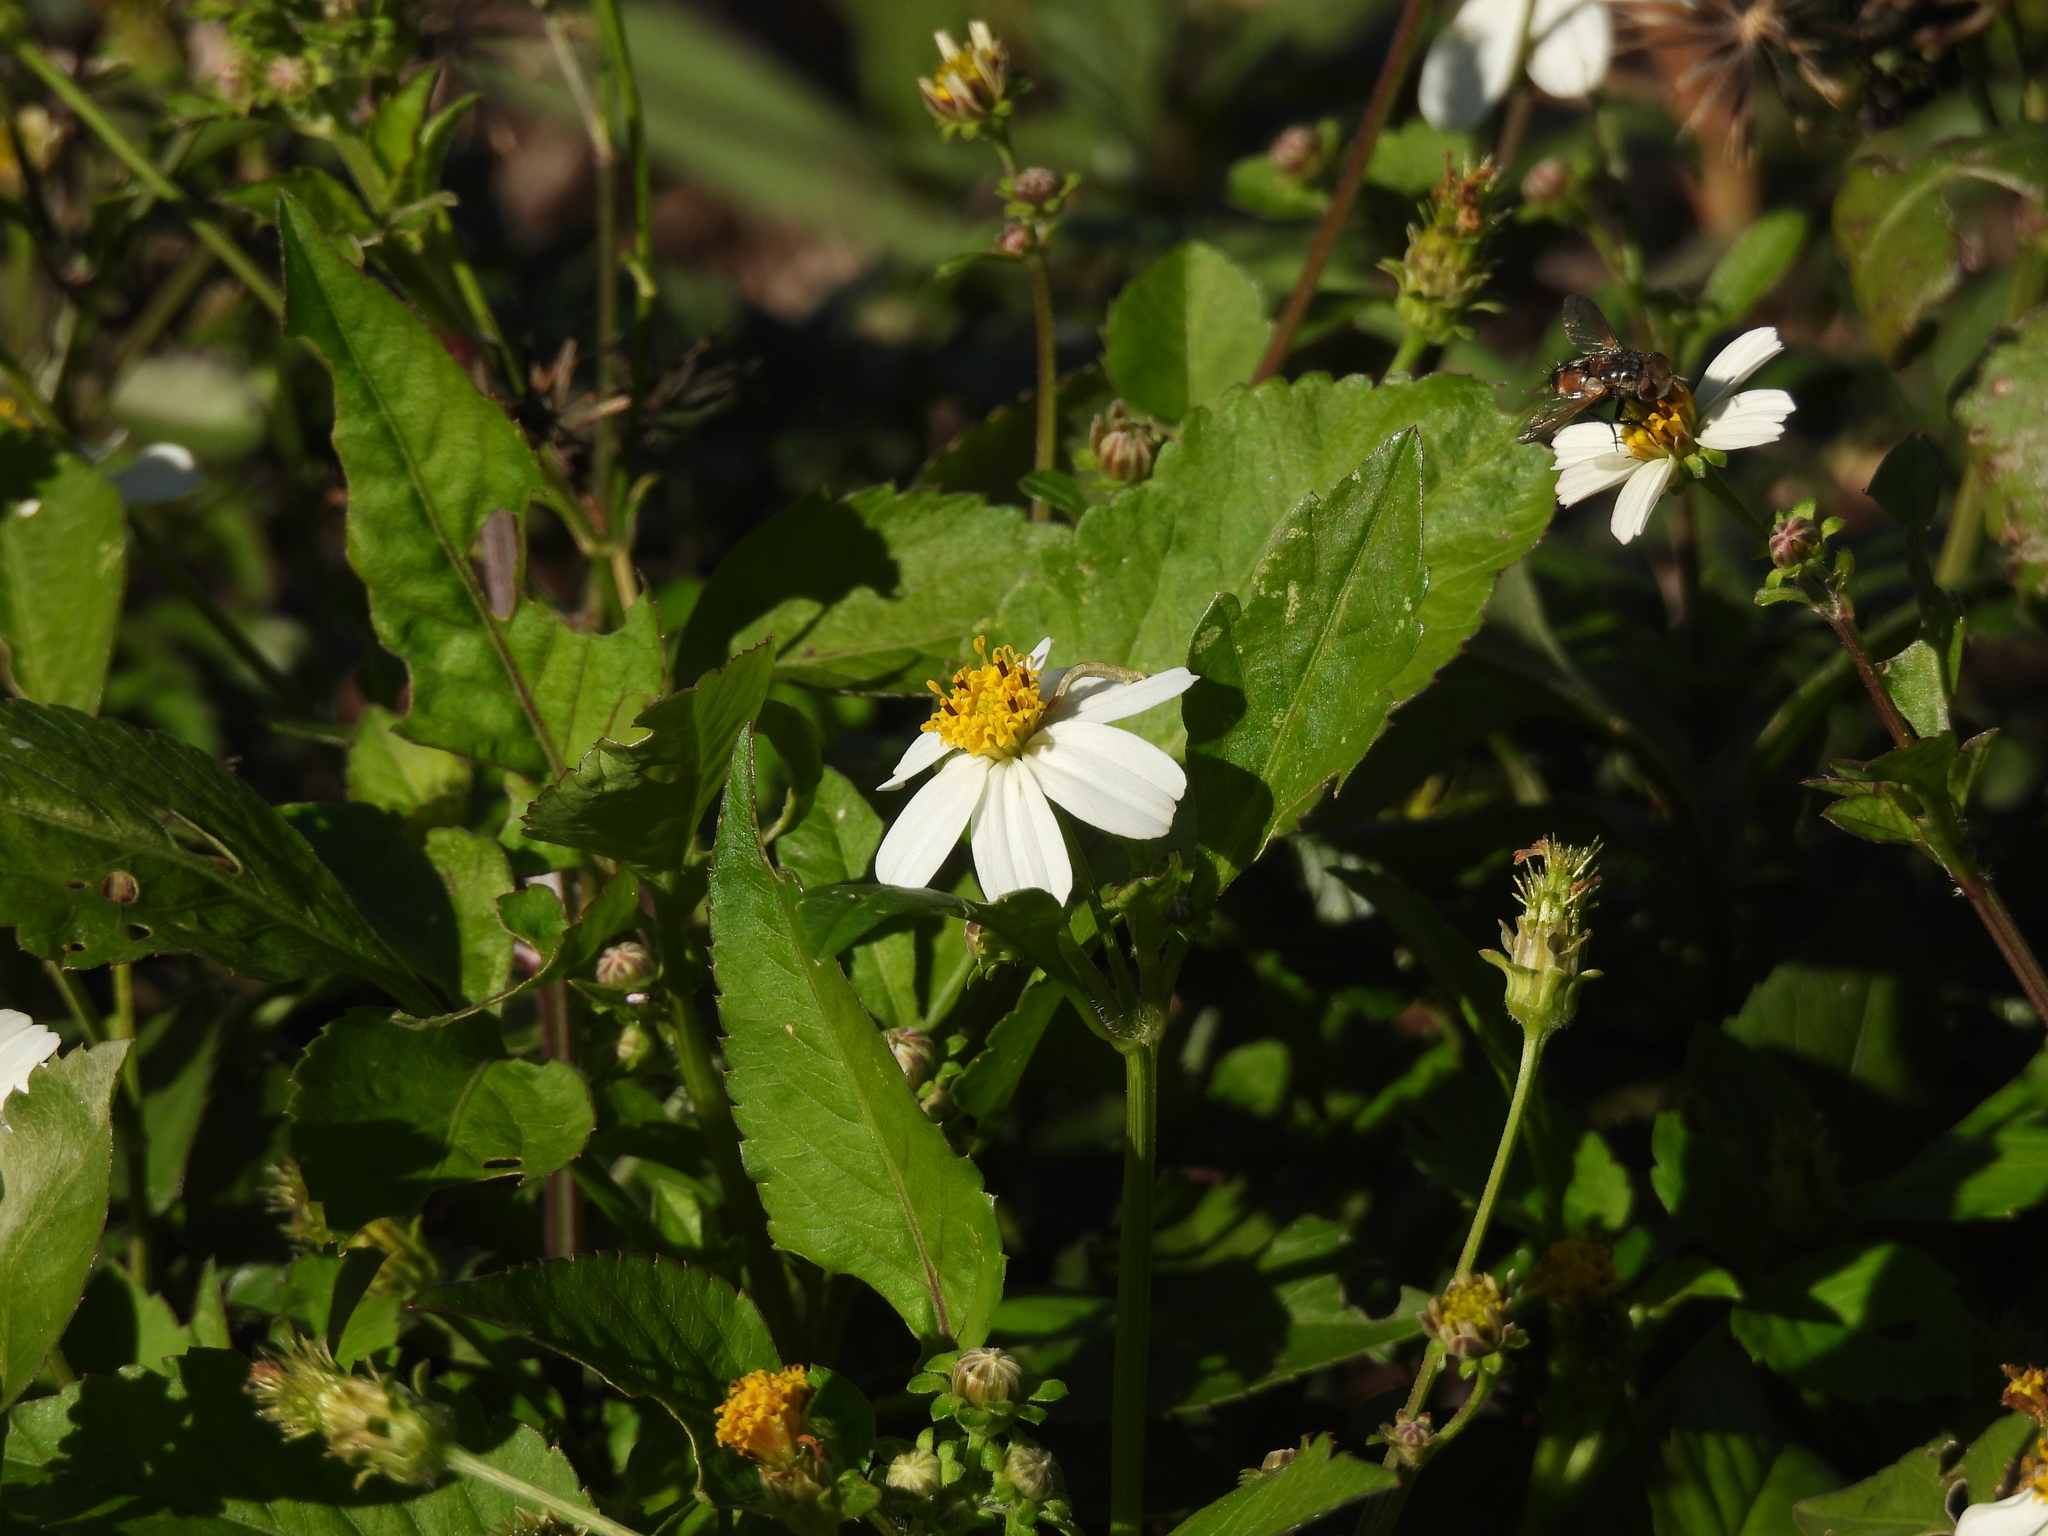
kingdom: Plantae
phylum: Tracheophyta
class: Magnoliopsida
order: Asterales
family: Asteraceae
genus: Bidens
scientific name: Bidens alba
